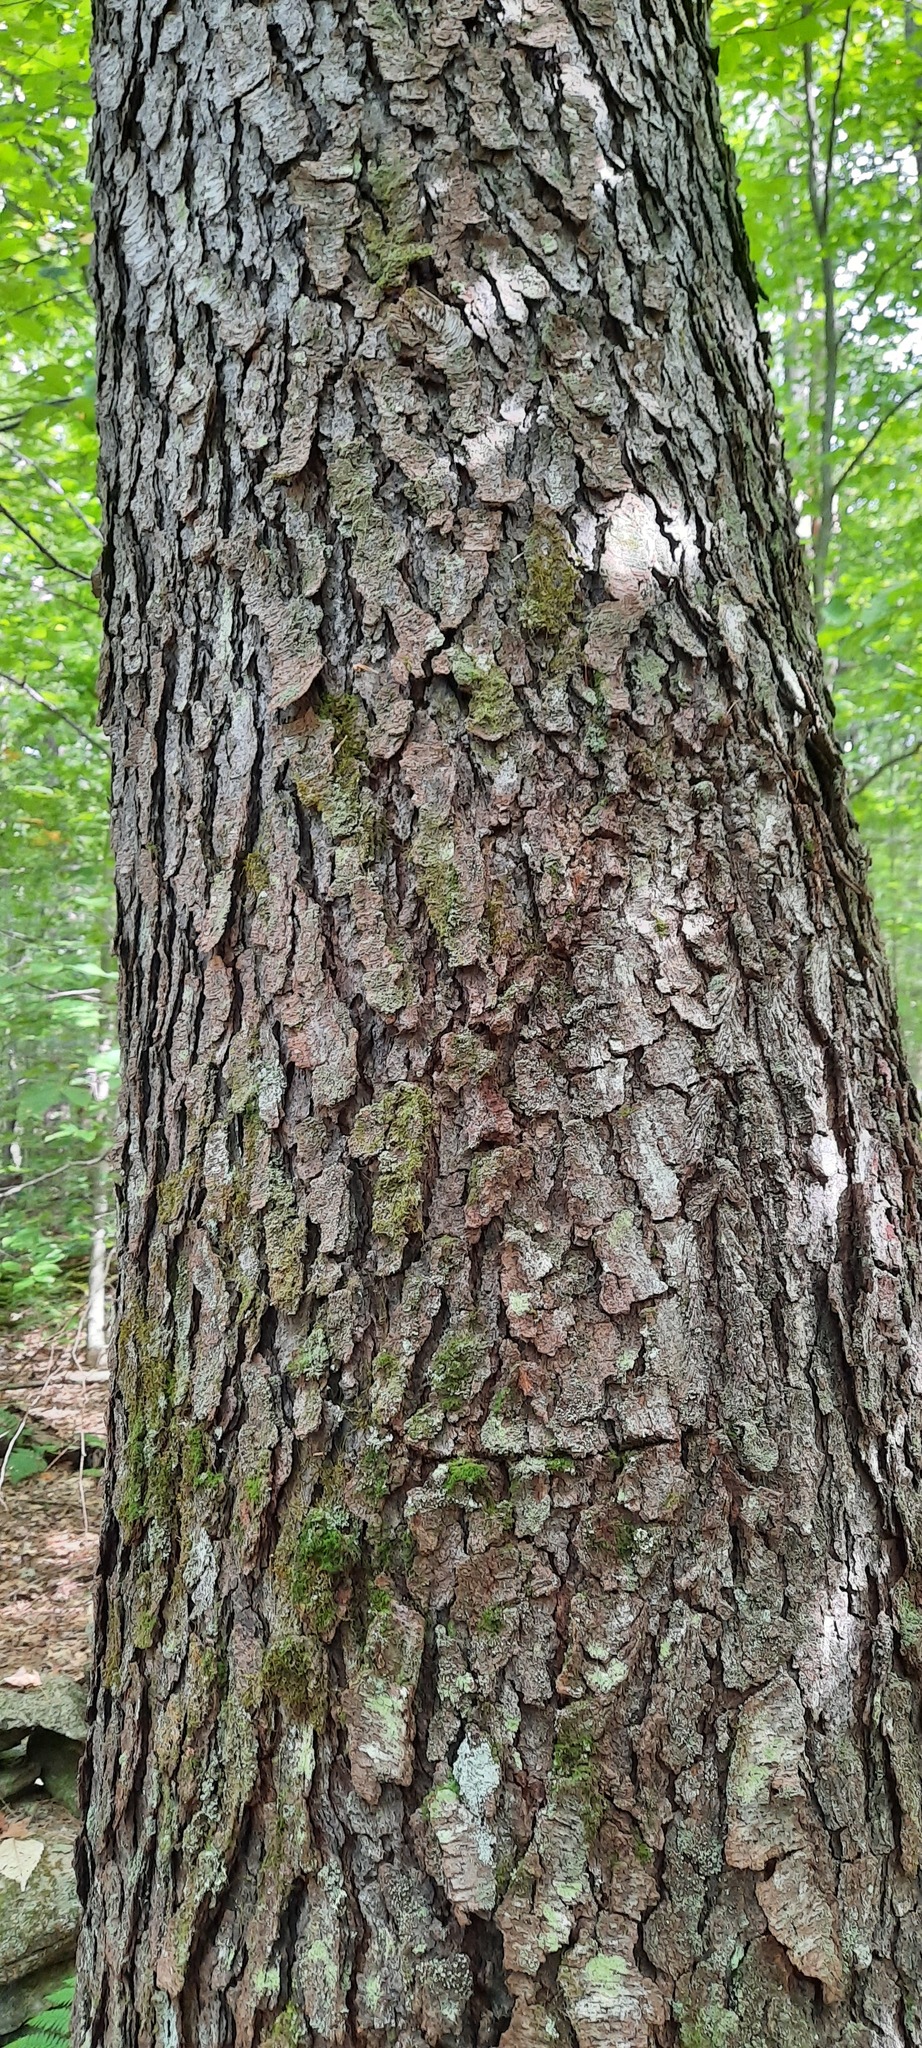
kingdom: Plantae
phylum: Tracheophyta
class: Magnoliopsida
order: Rosales
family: Rosaceae
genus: Prunus
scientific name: Prunus serotina
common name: Black cherry
